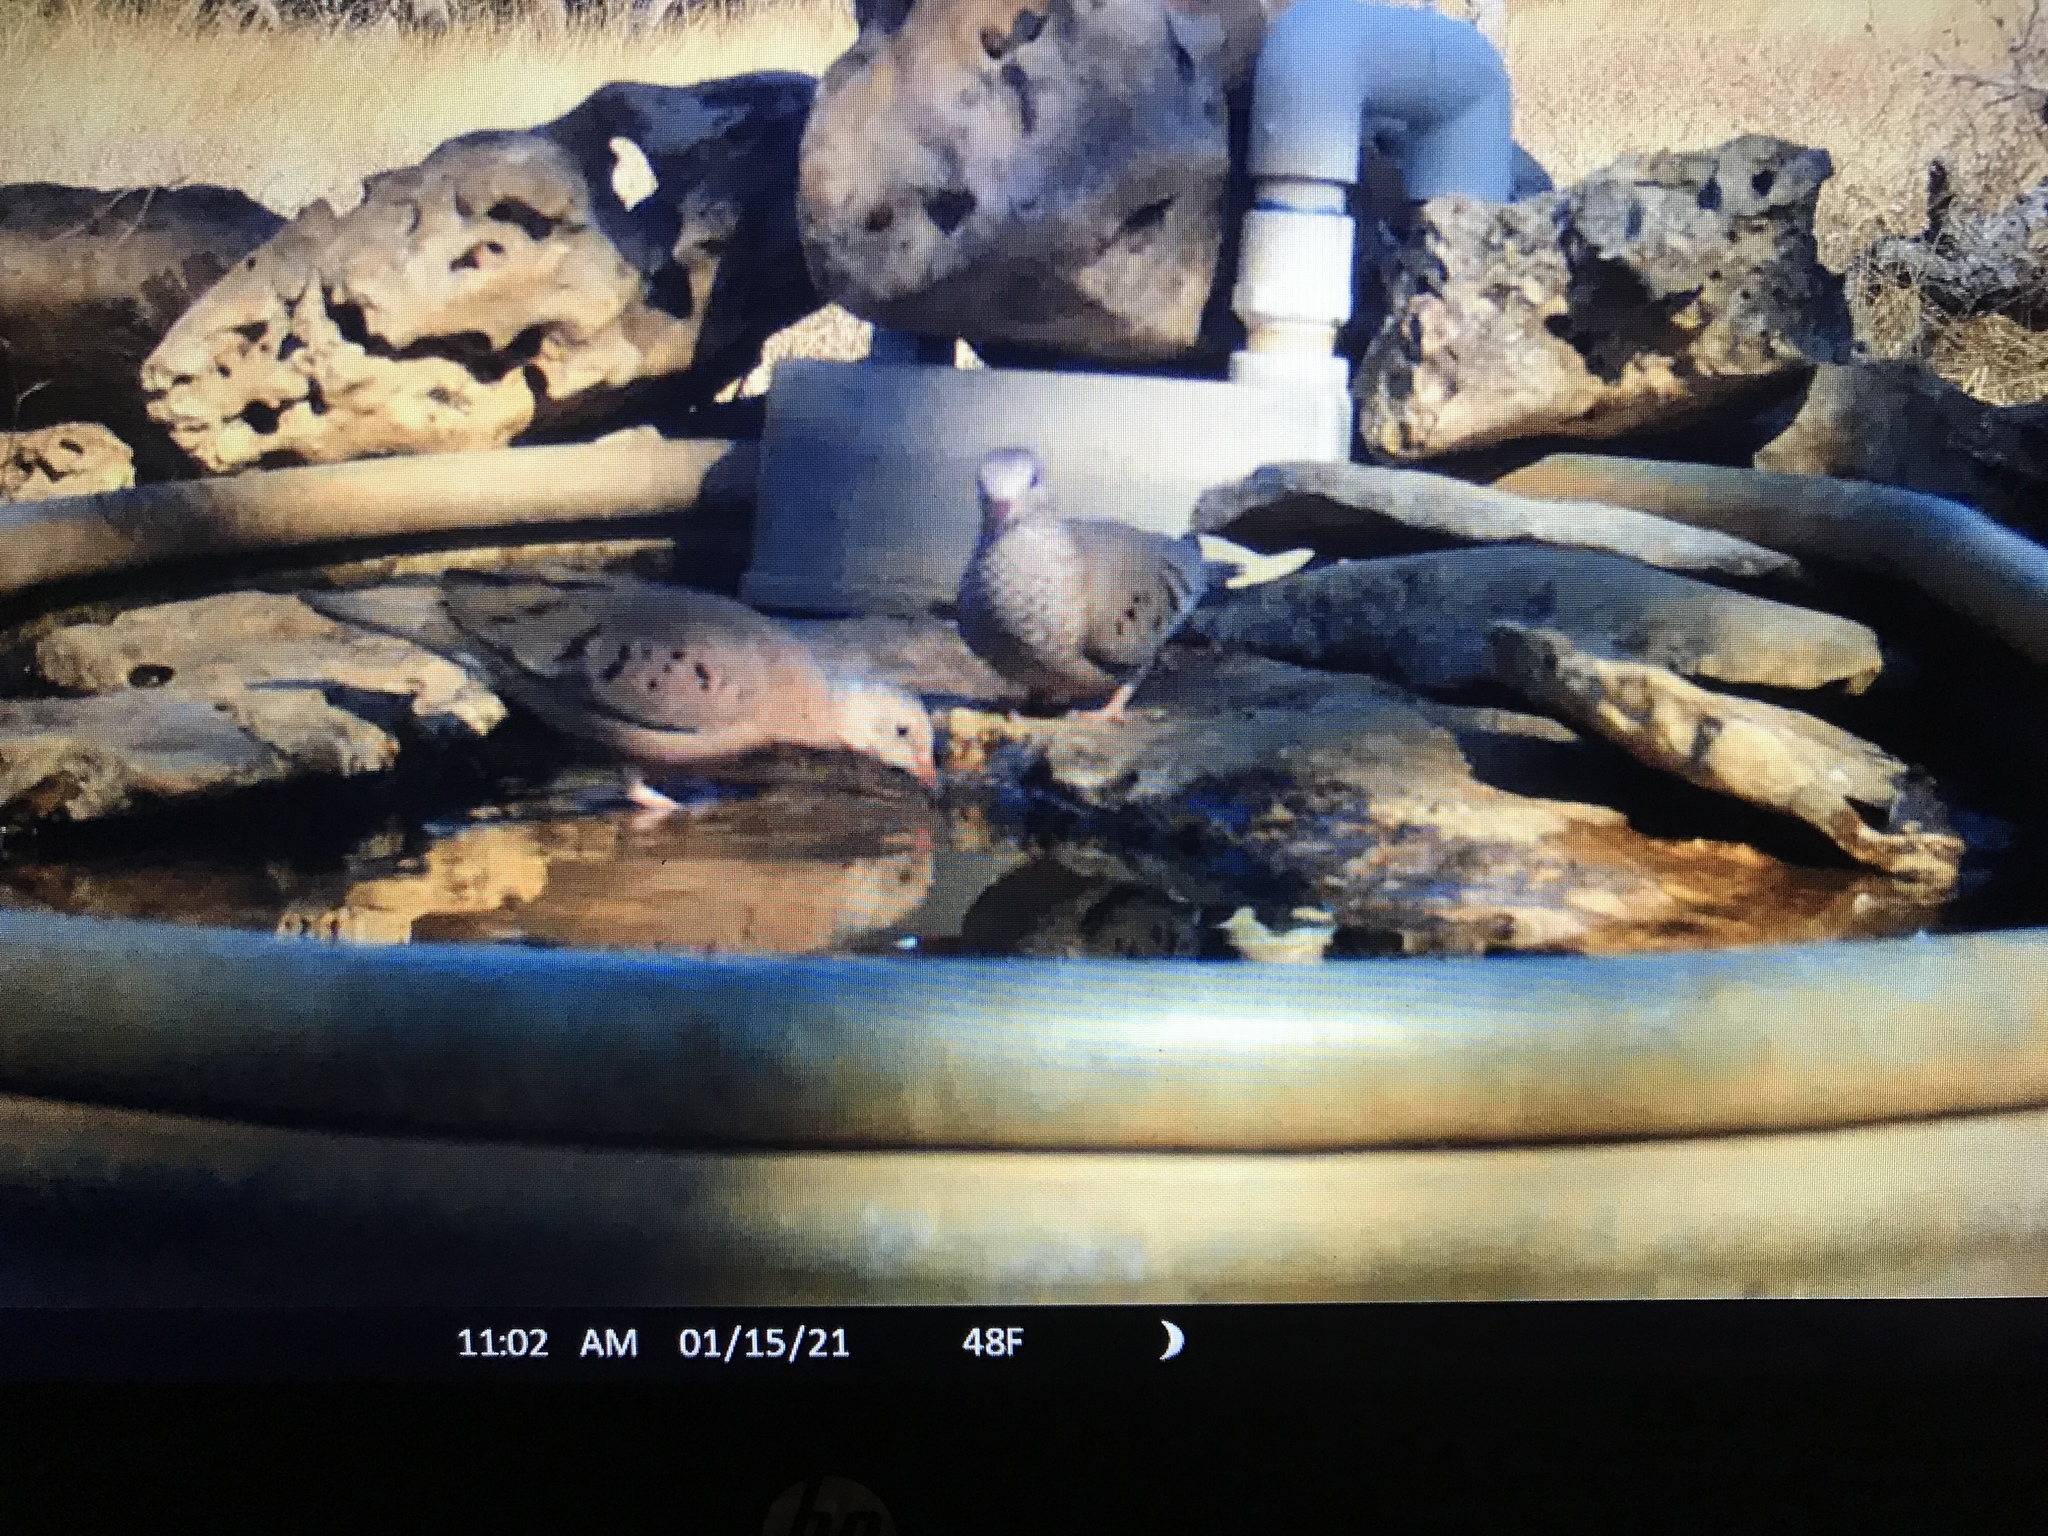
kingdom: Animalia
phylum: Chordata
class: Aves
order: Columbiformes
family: Columbidae
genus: Columbina
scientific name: Columbina passerina
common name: Common ground-dove
